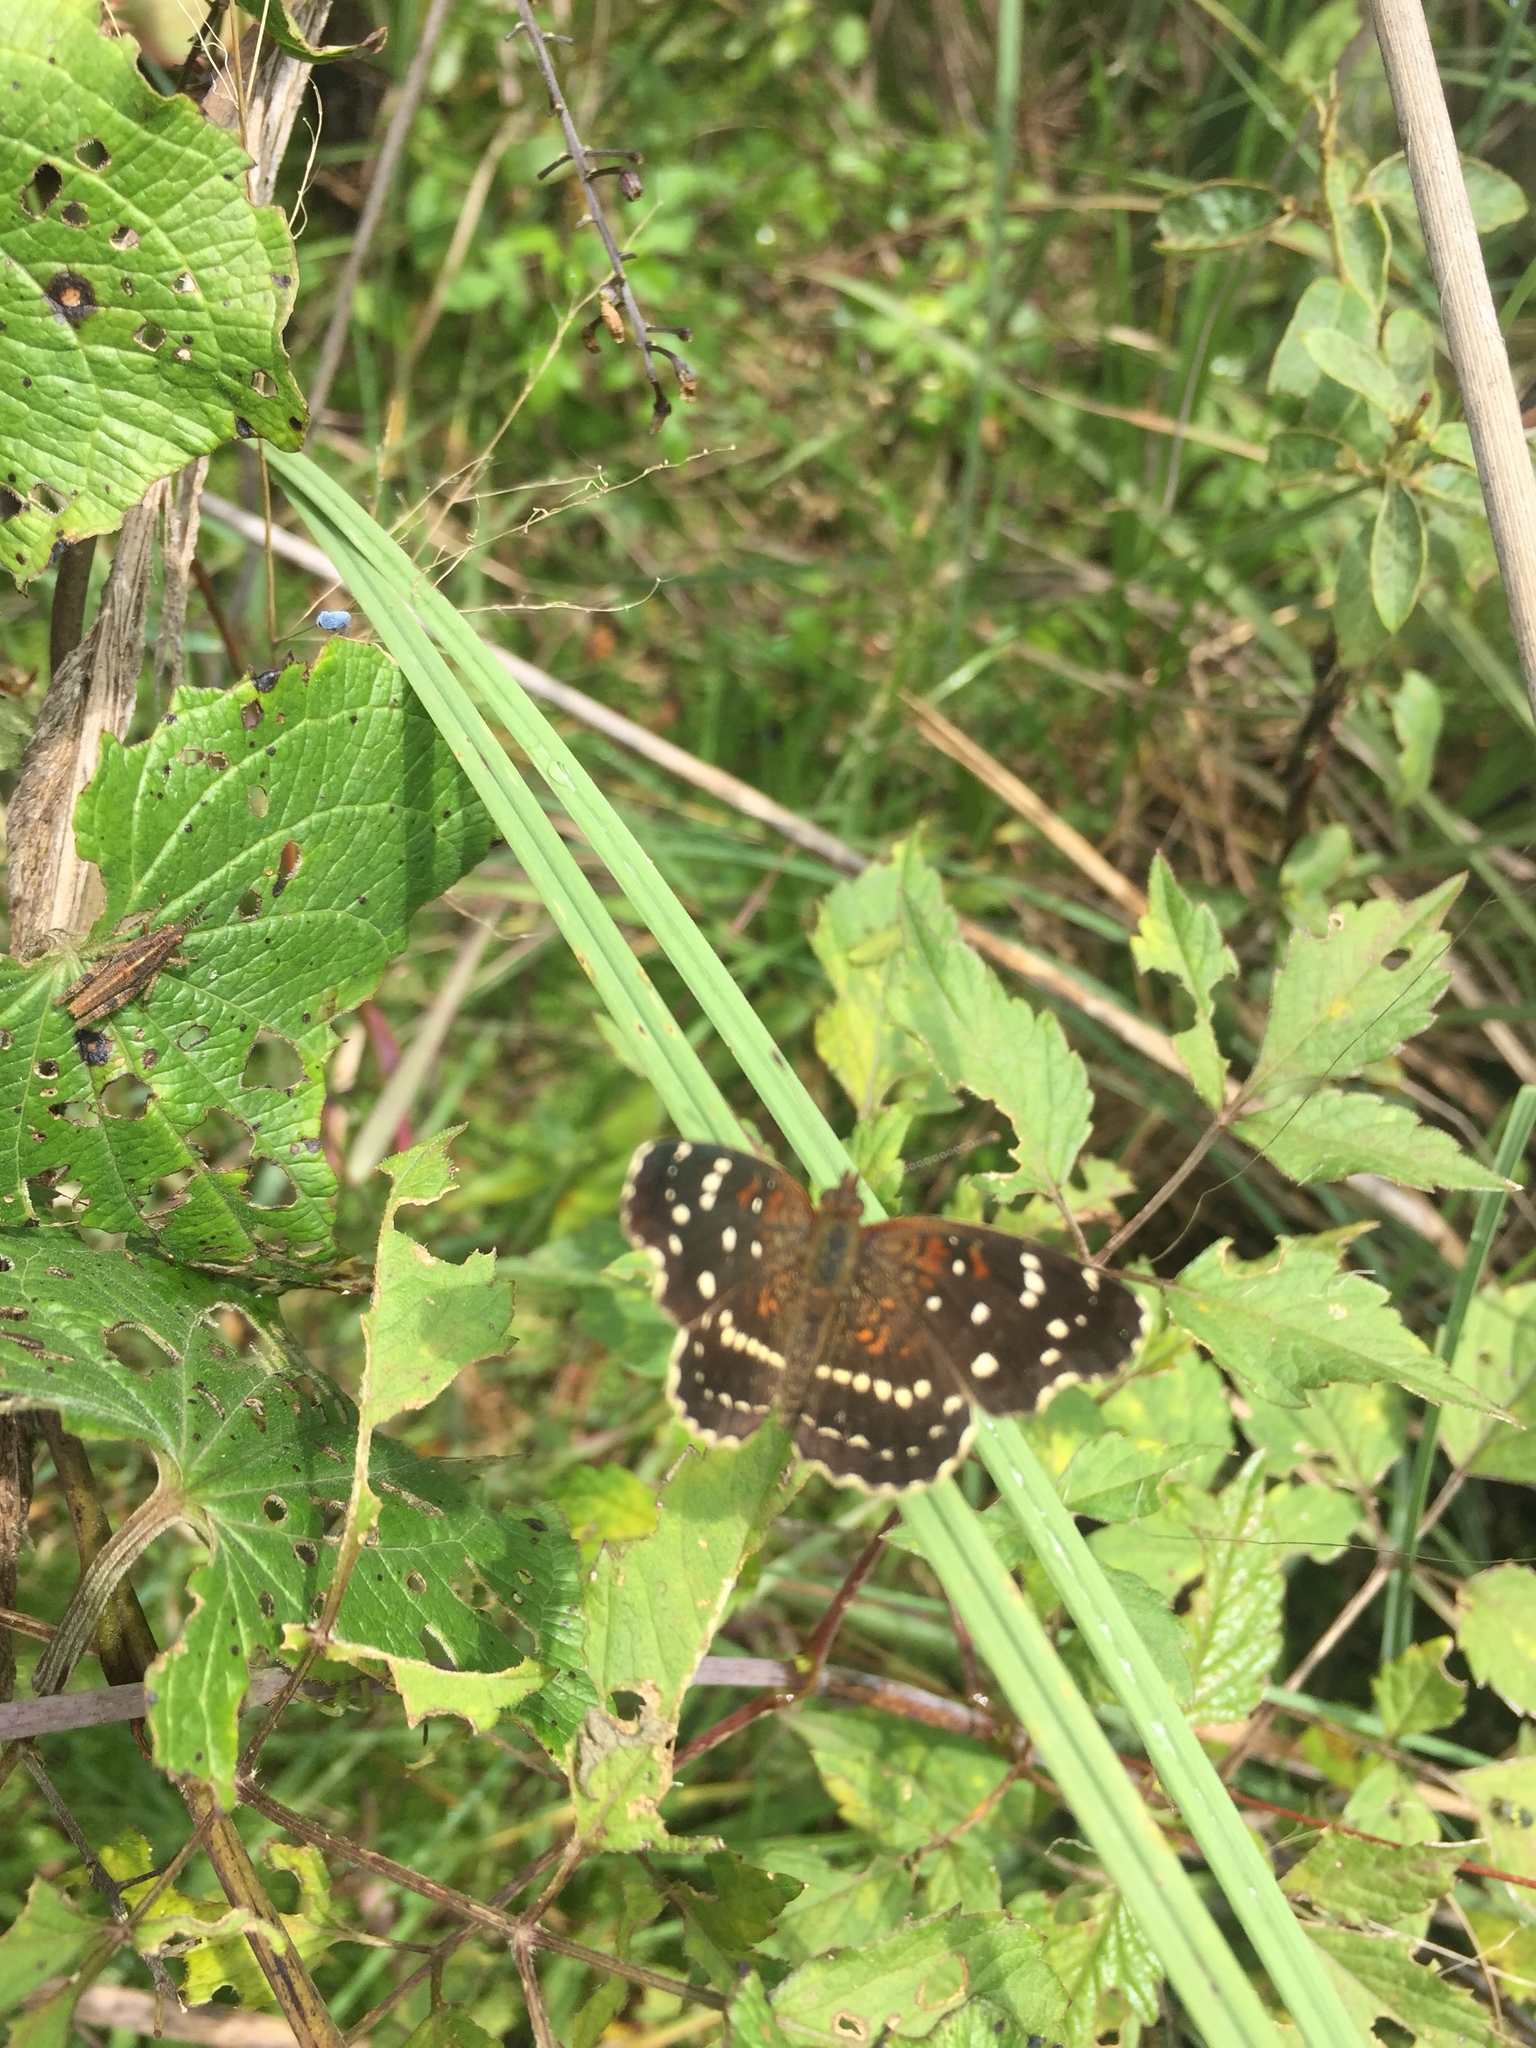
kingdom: Animalia
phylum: Arthropoda
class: Insecta
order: Lepidoptera
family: Nymphalidae
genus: Anthanassa
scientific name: Anthanassa texana
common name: Texan crescent
